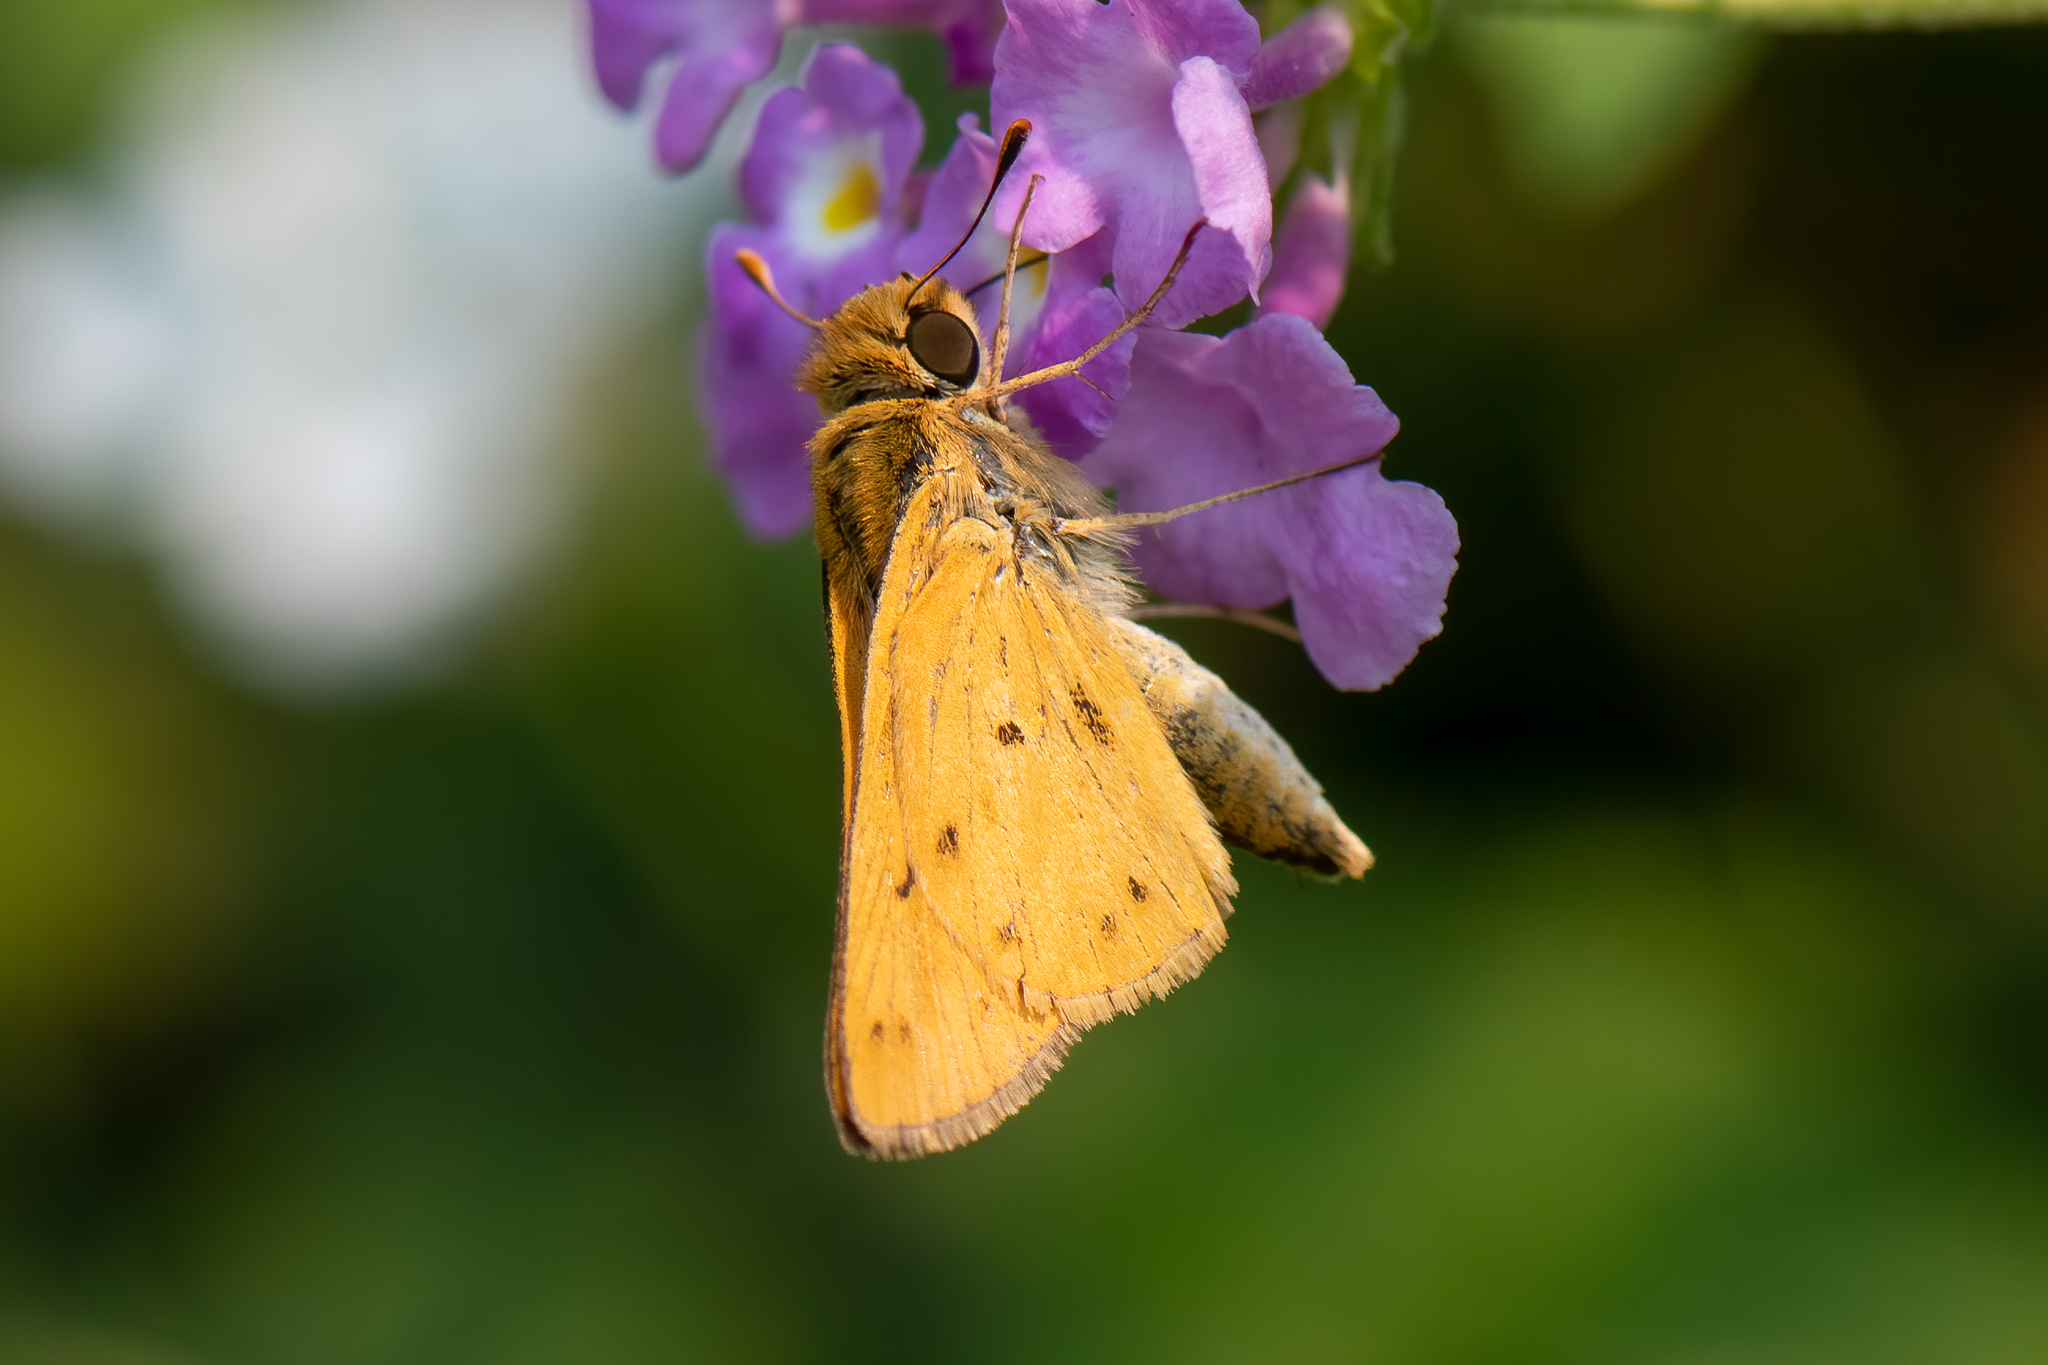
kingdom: Animalia
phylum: Arthropoda
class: Insecta
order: Lepidoptera
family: Hesperiidae
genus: Hylephila
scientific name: Hylephila phyleus
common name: Fiery skipper
